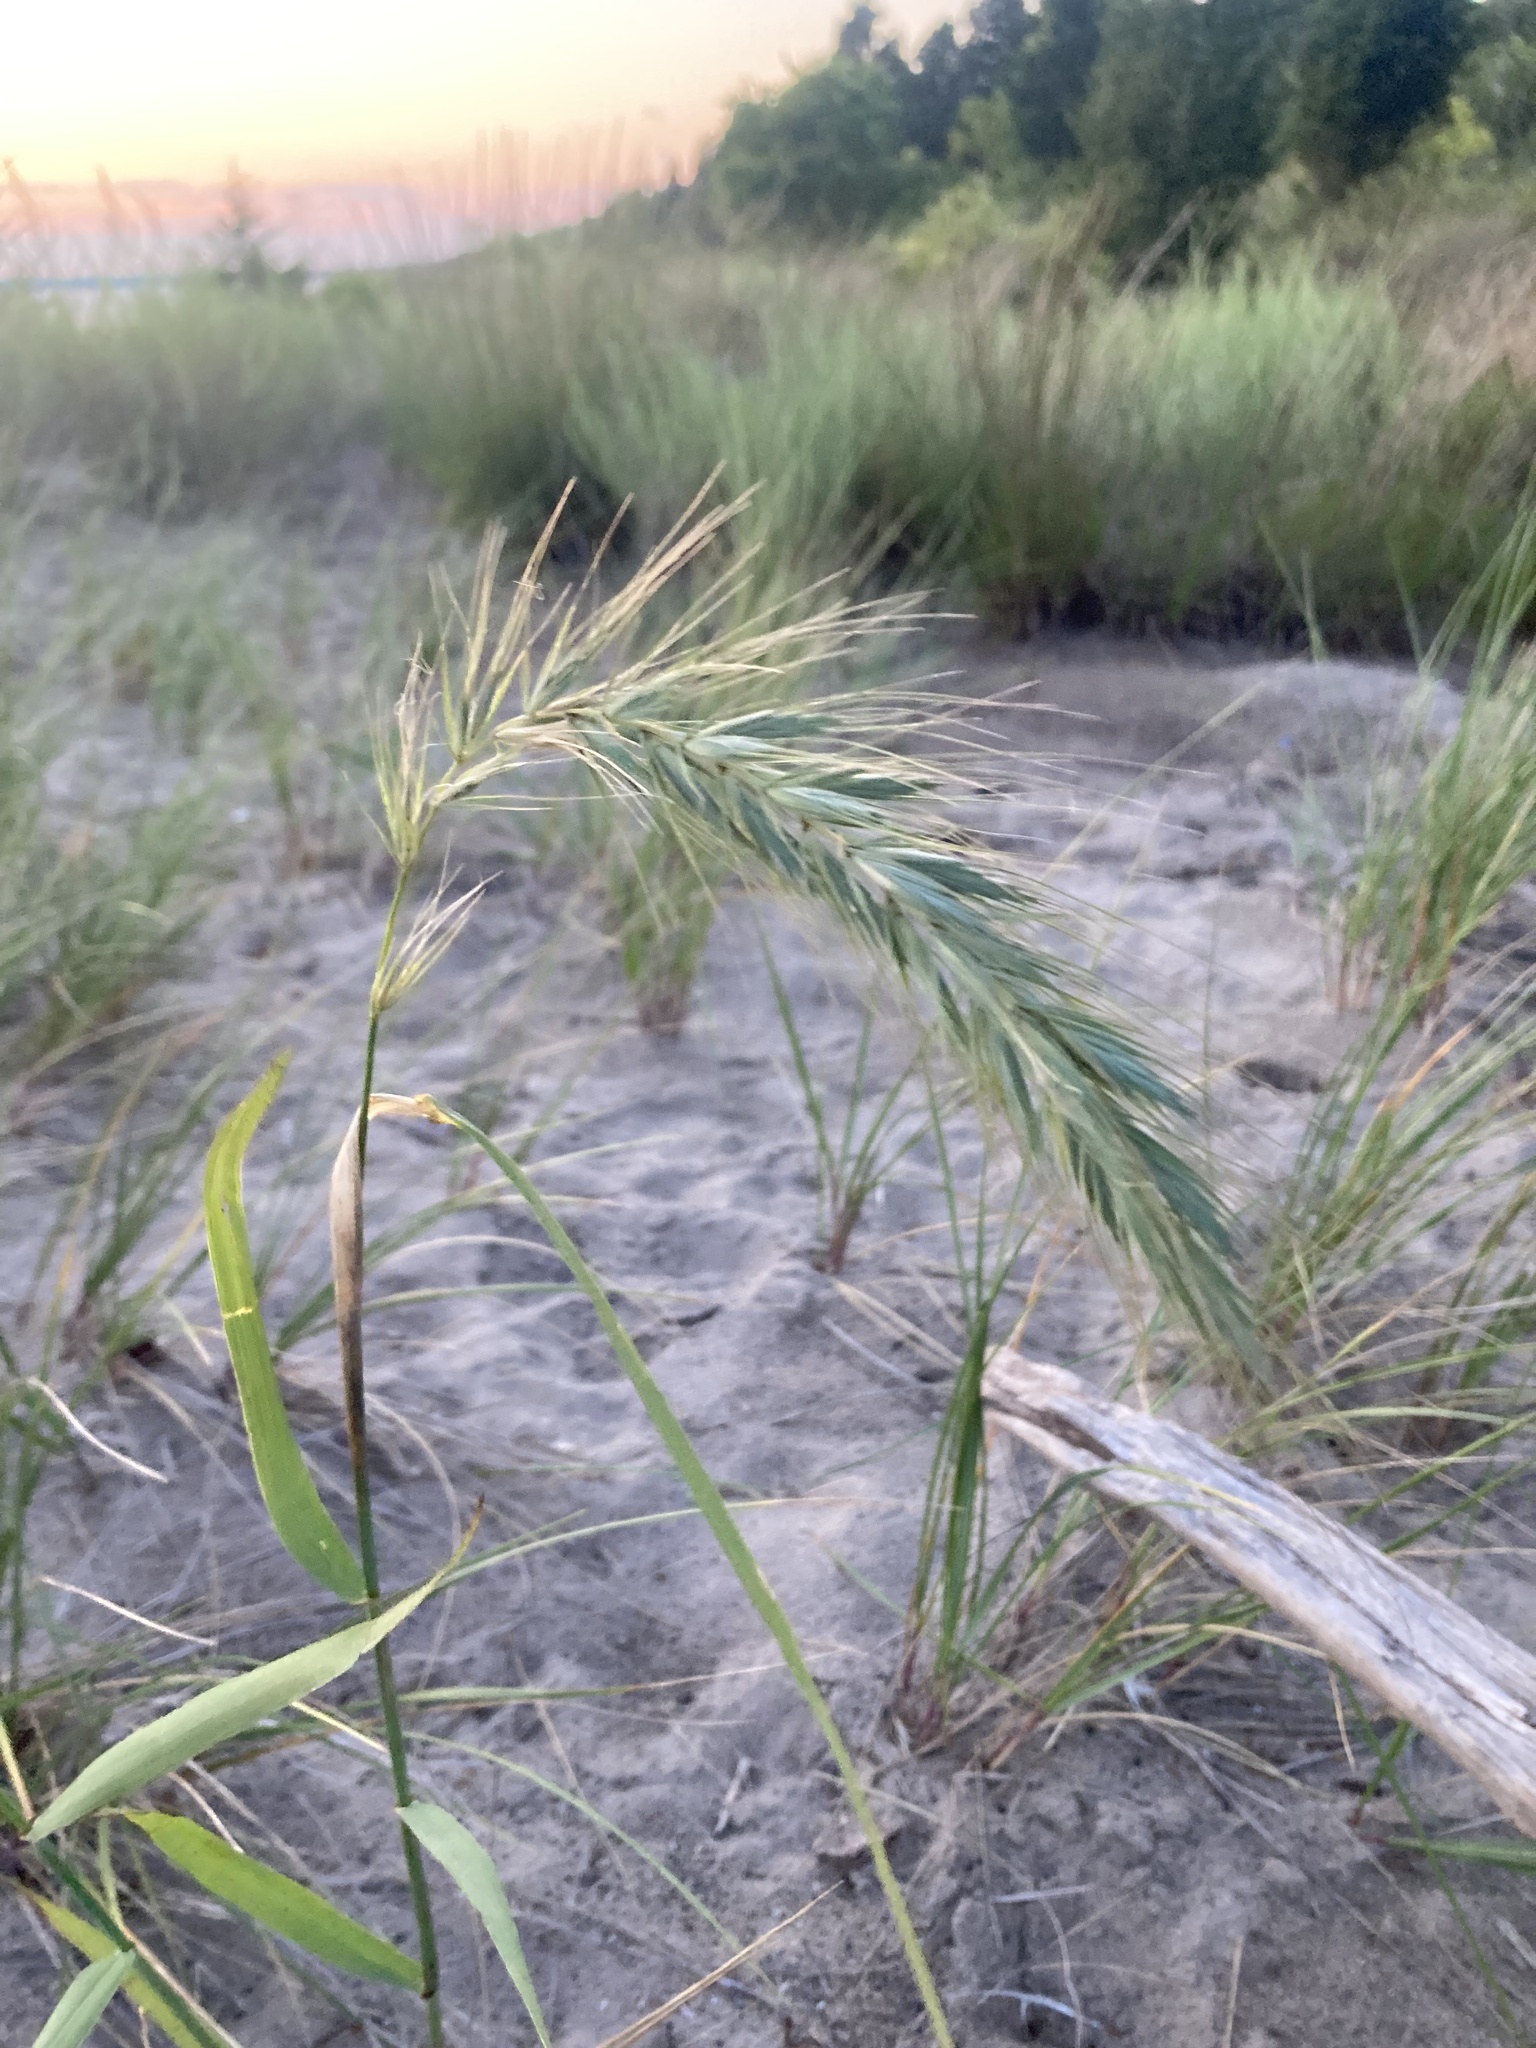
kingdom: Plantae
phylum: Tracheophyta
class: Liliopsida
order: Poales
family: Poaceae
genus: Elymus
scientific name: Elymus canadensis
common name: Canada wild rye
